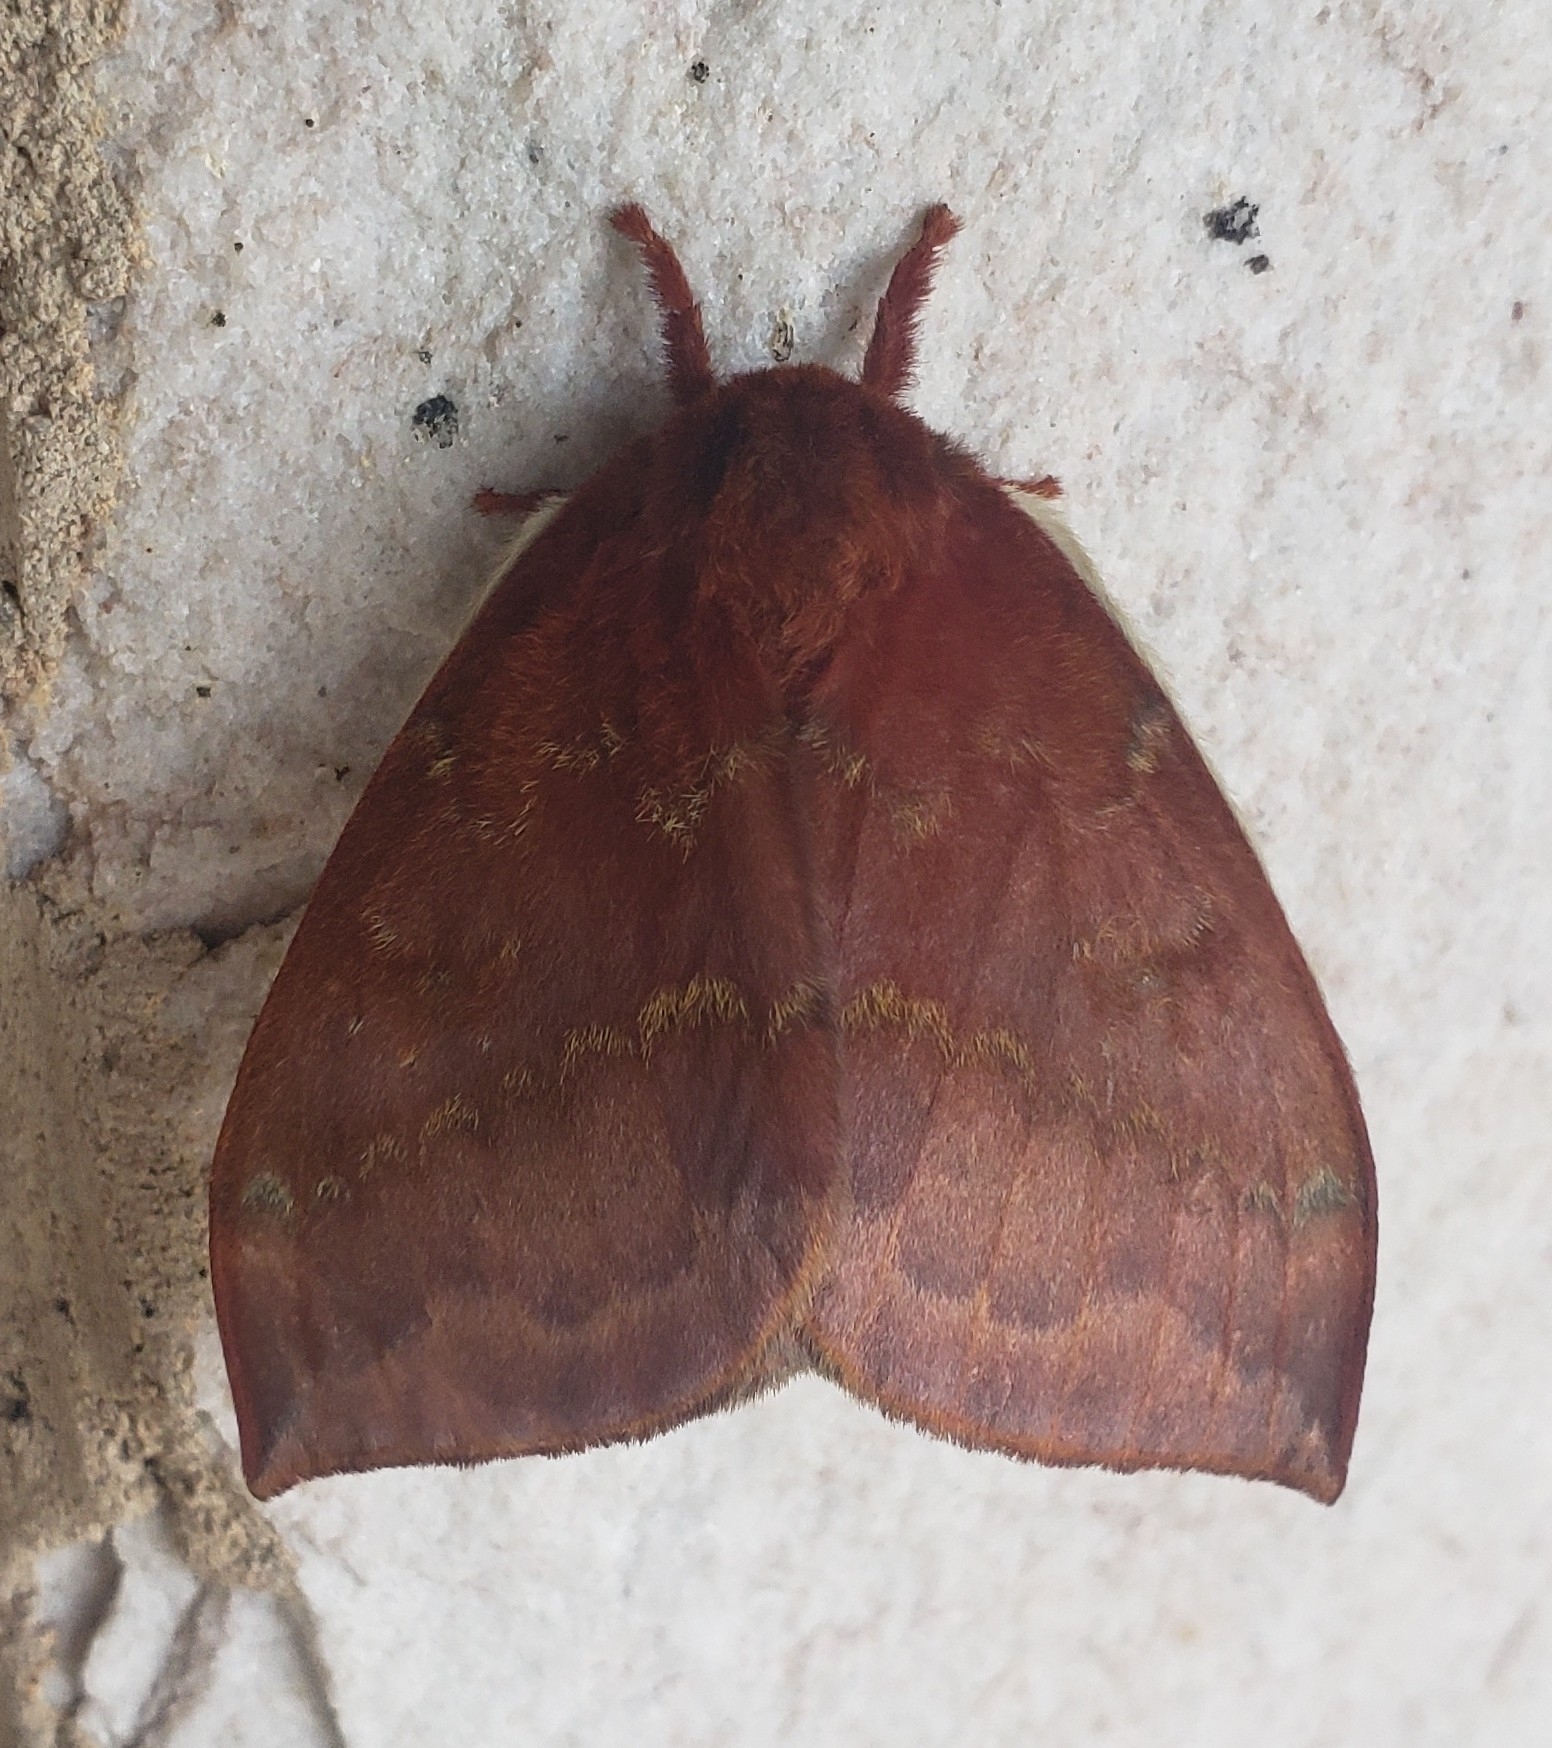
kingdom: Animalia
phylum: Arthropoda
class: Insecta
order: Lepidoptera
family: Saturniidae
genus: Automeris
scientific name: Automeris io
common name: Io moth
